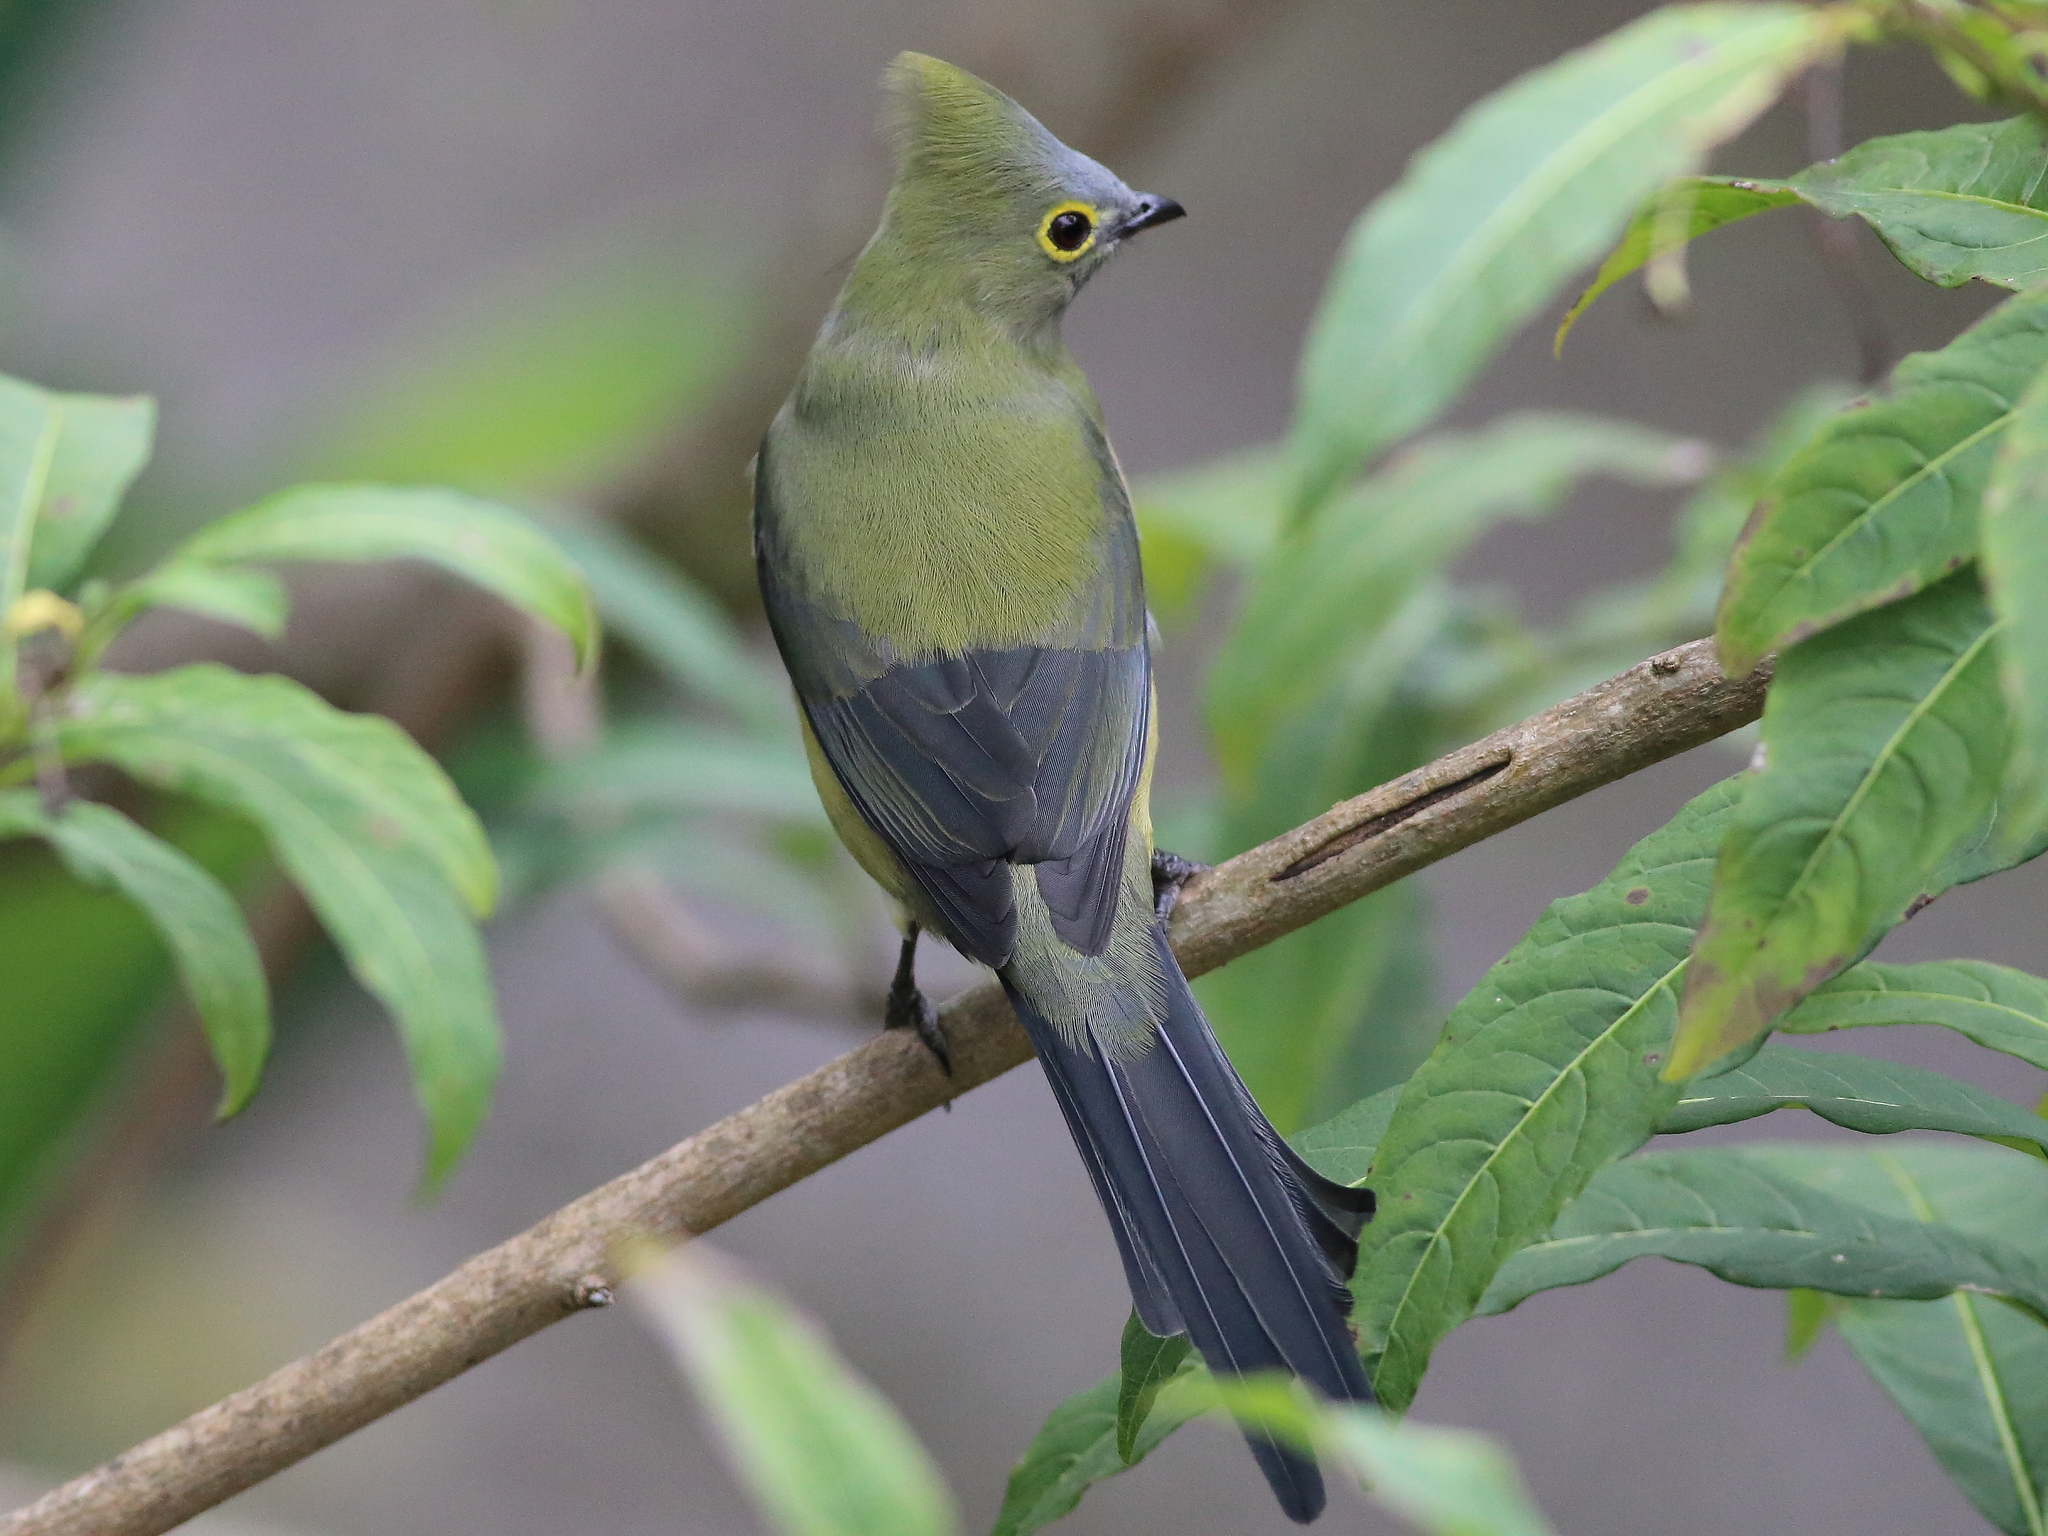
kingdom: Animalia
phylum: Chordata
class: Aves
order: Passeriformes
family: Ptilogonatidae
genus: Ptilogonys
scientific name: Ptilogonys caudatus
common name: Long-tailed silky-flycatcher
